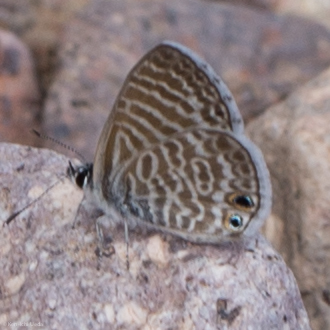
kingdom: Animalia
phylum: Arthropoda
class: Insecta
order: Lepidoptera
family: Lycaenidae
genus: Leptotes
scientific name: Leptotes marina
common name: Marine blue
